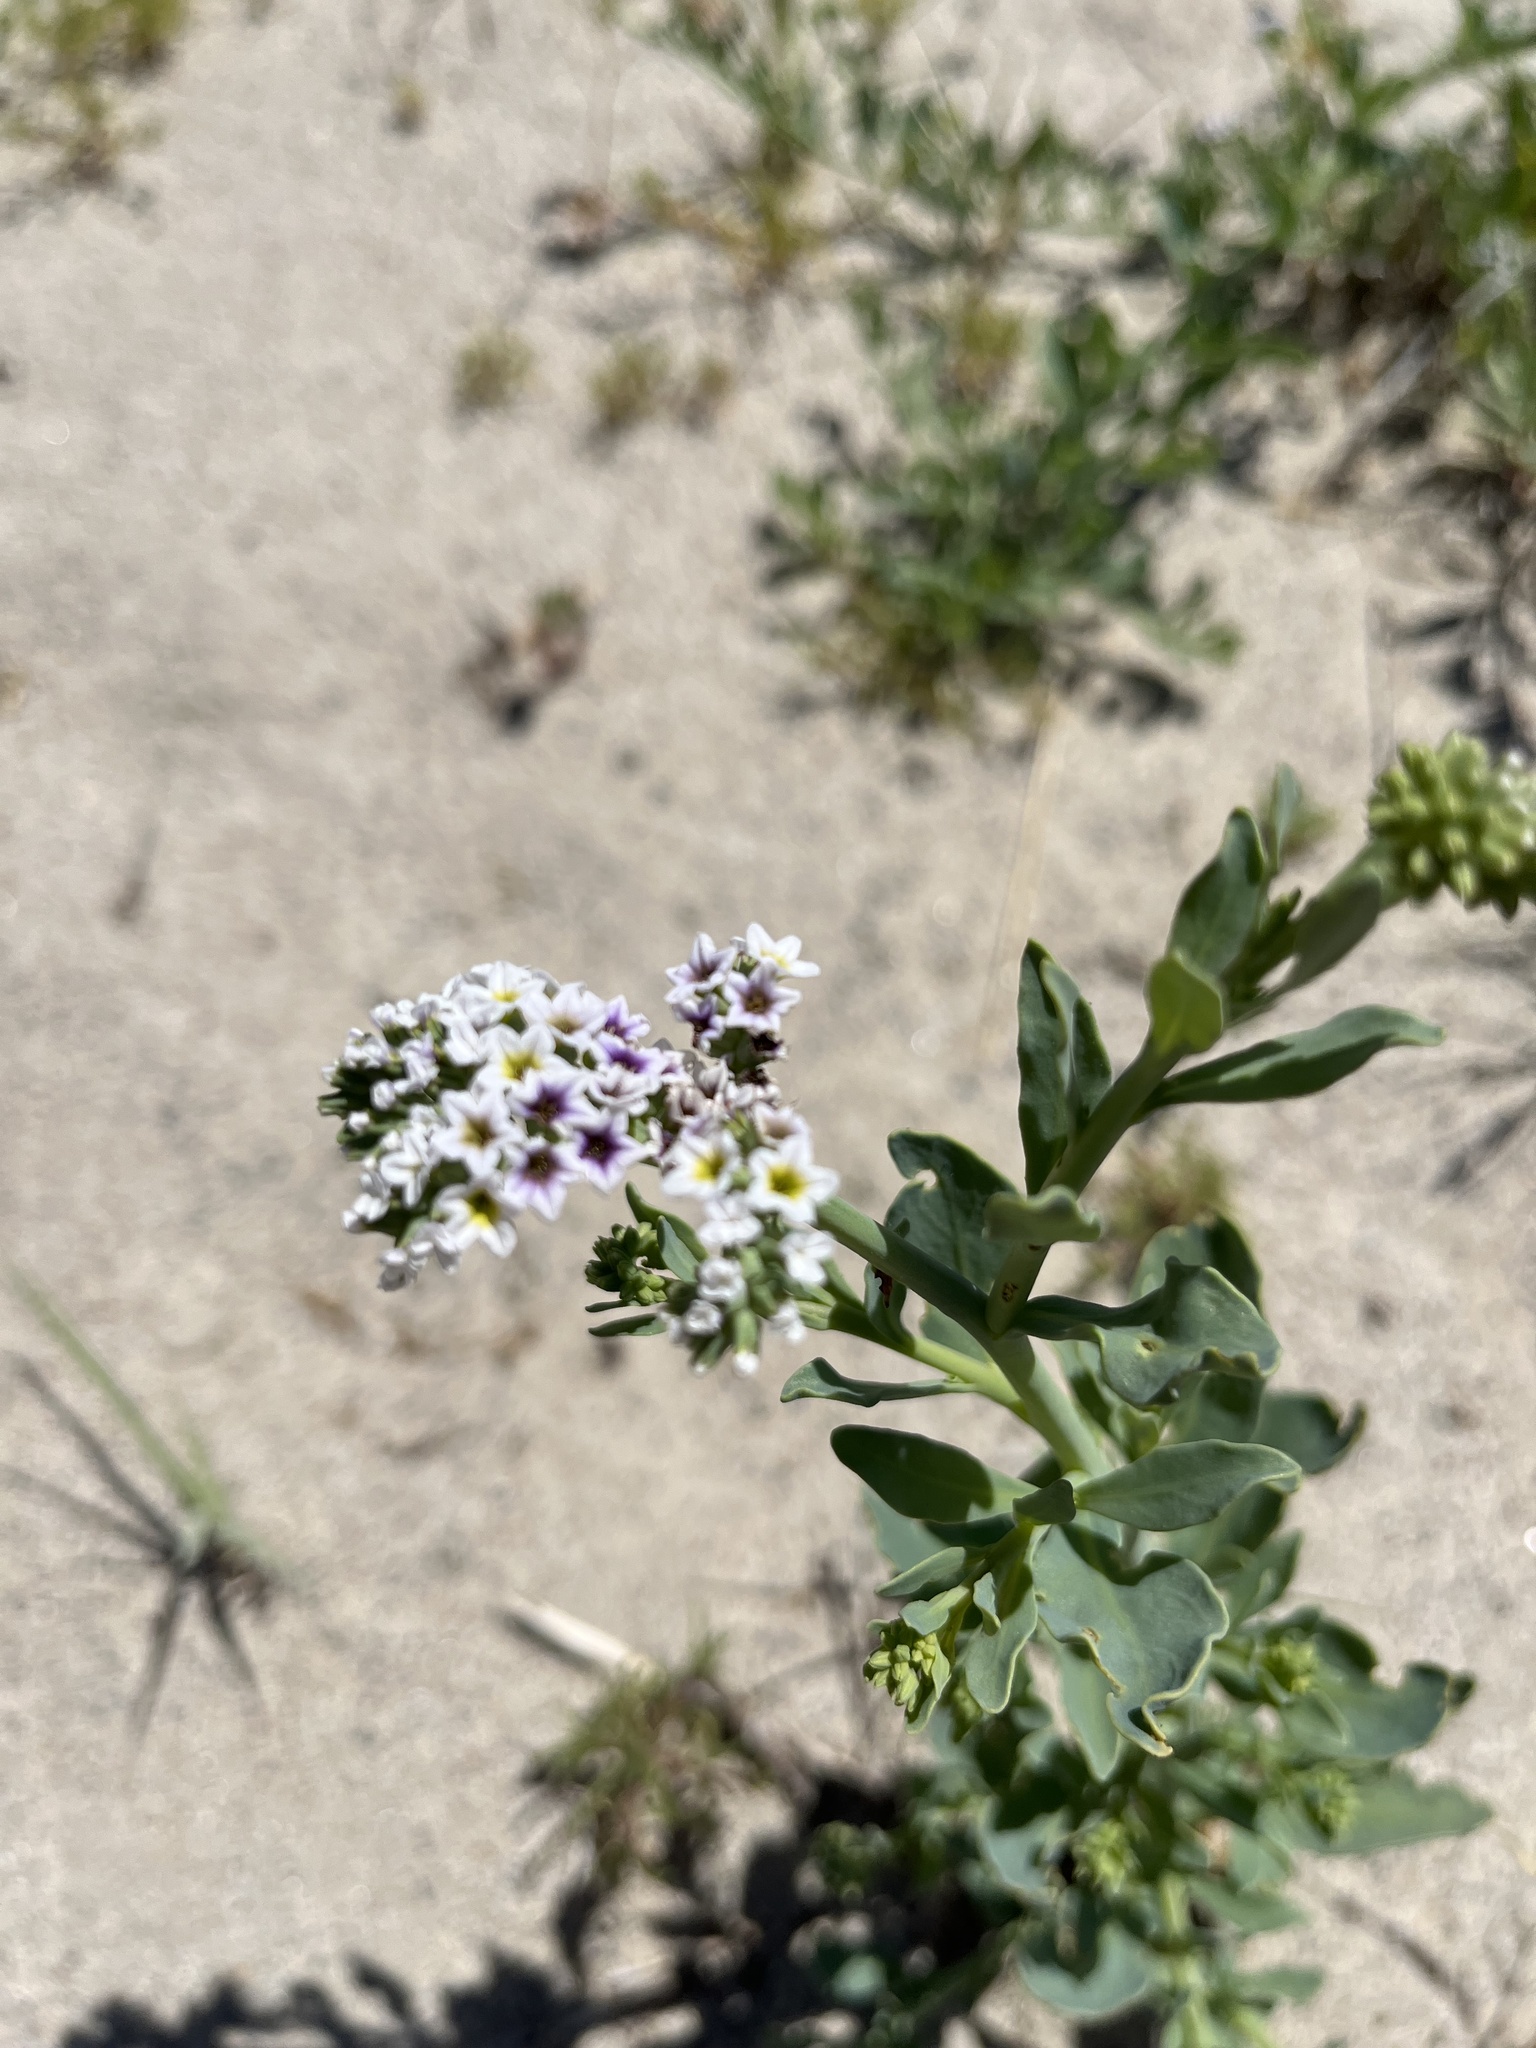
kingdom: Plantae
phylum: Tracheophyta
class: Magnoliopsida
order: Boraginales
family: Heliotropiaceae
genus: Heliotropium
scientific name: Heliotropium curassavicum
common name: Seaside heliotrope
